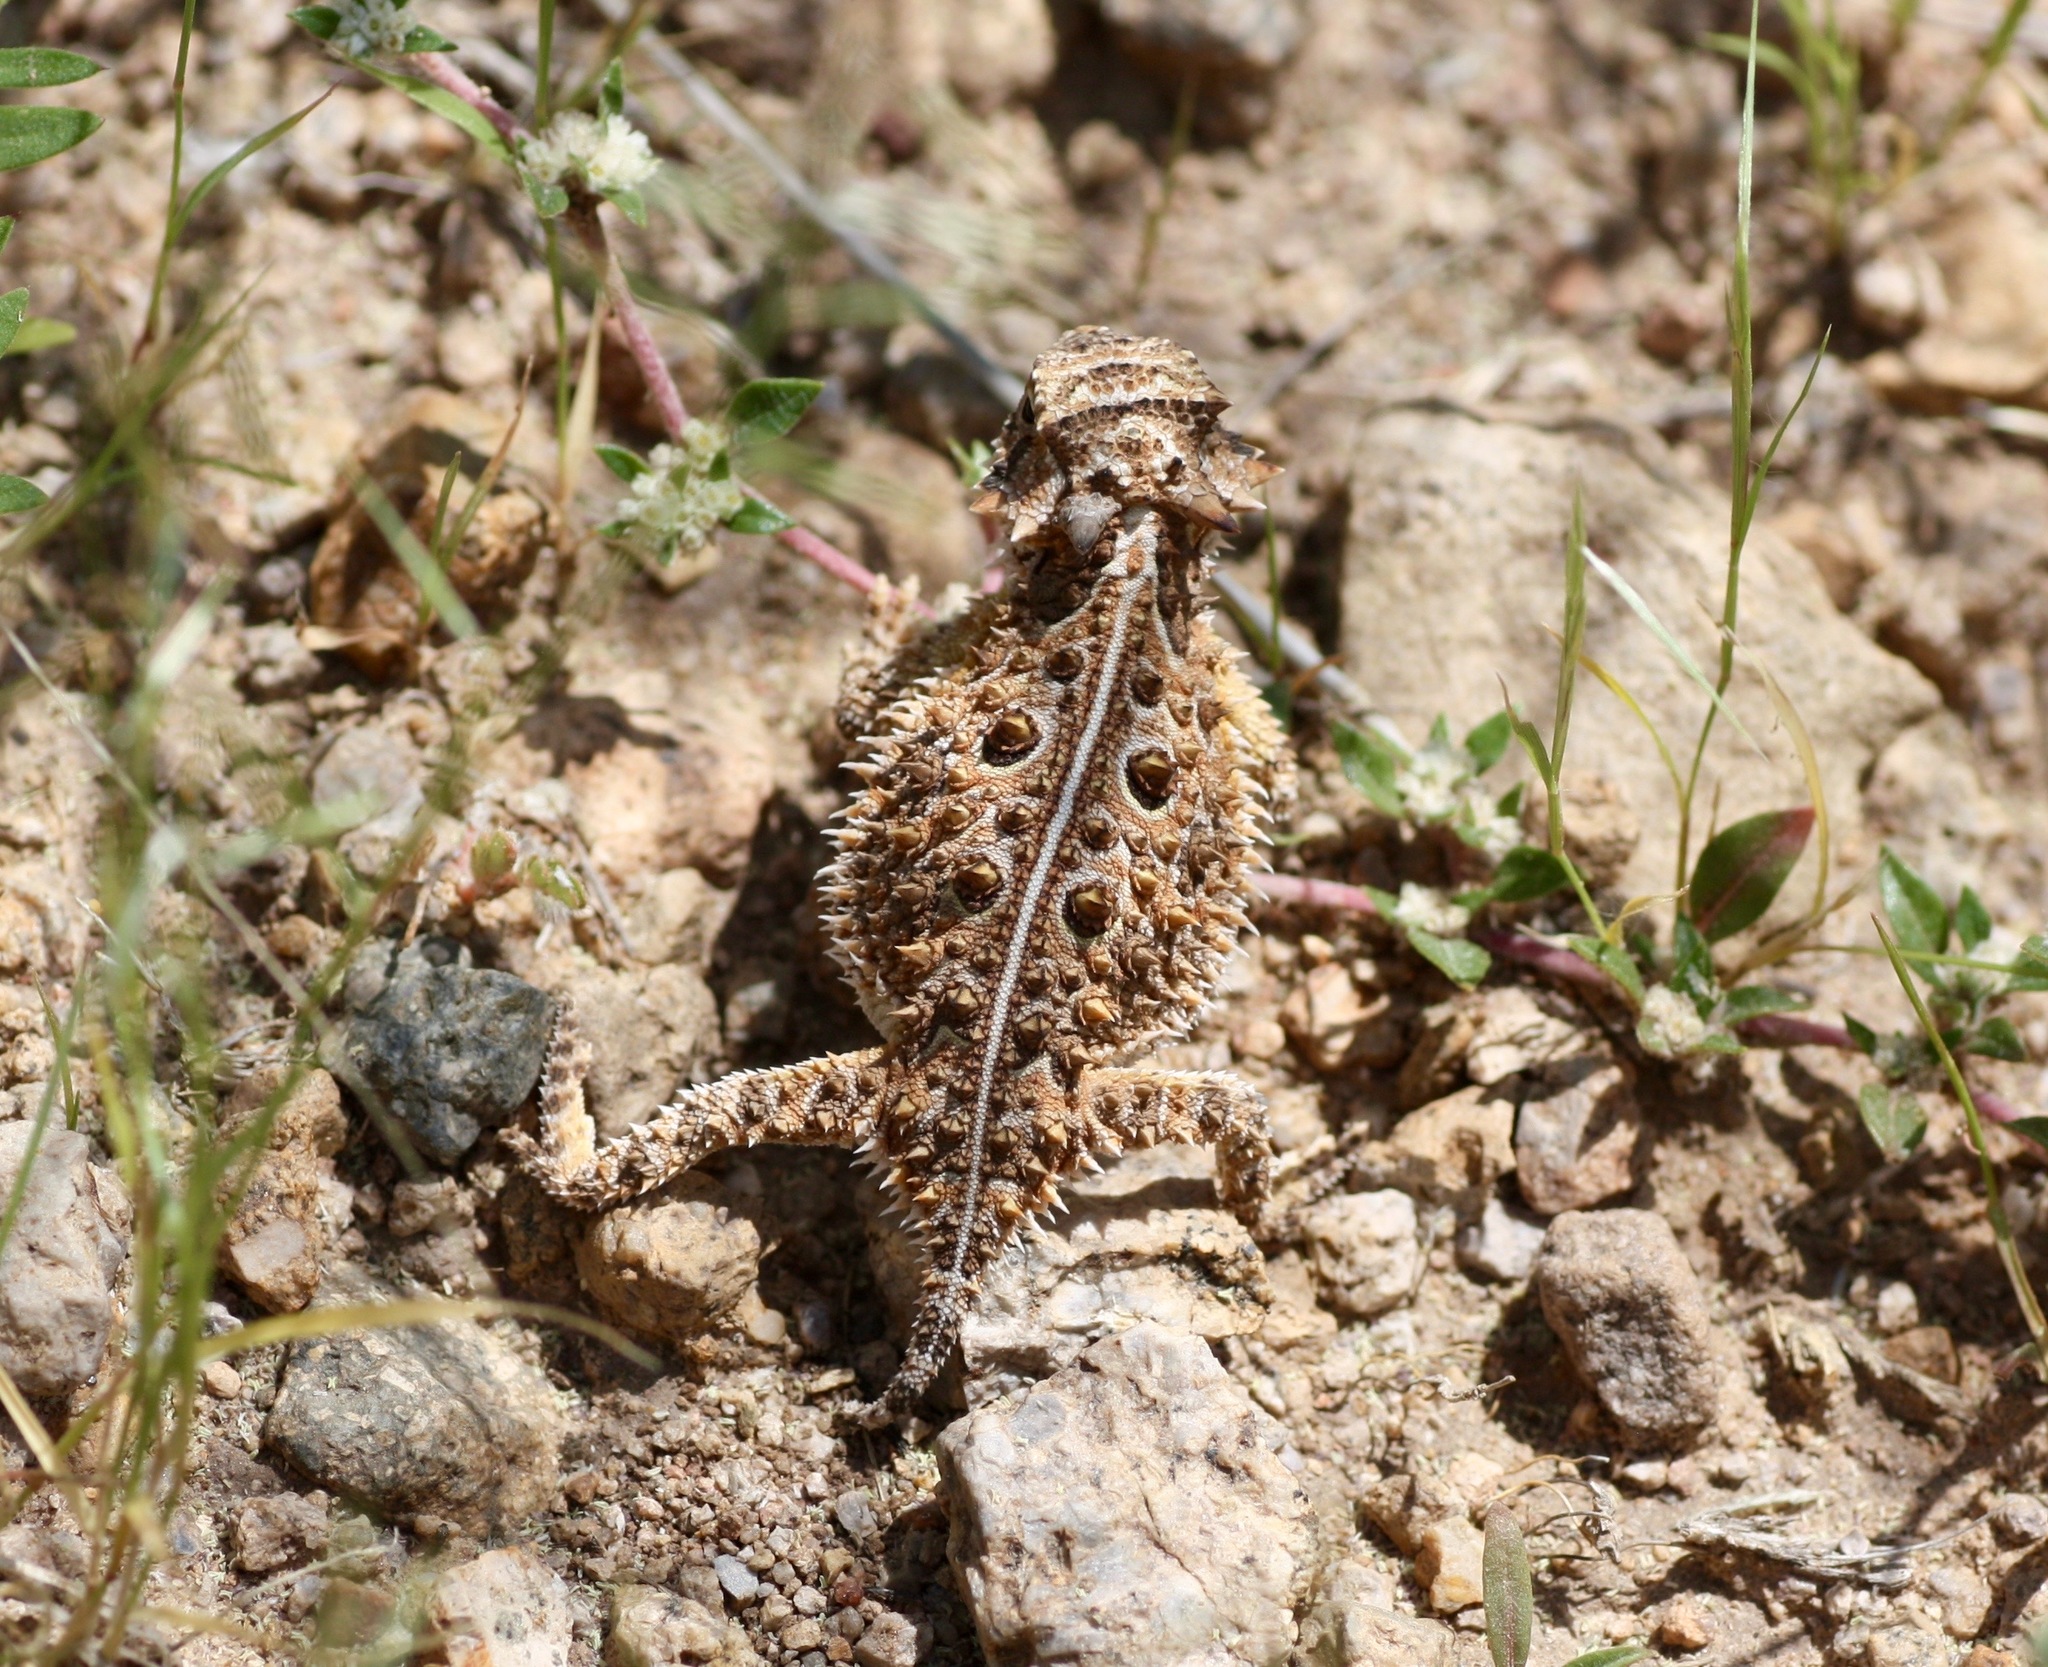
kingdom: Animalia
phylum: Chordata
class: Squamata
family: Phrynosomatidae
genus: Phrynosoma
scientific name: Phrynosoma cornutum
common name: Texas horned lizard
